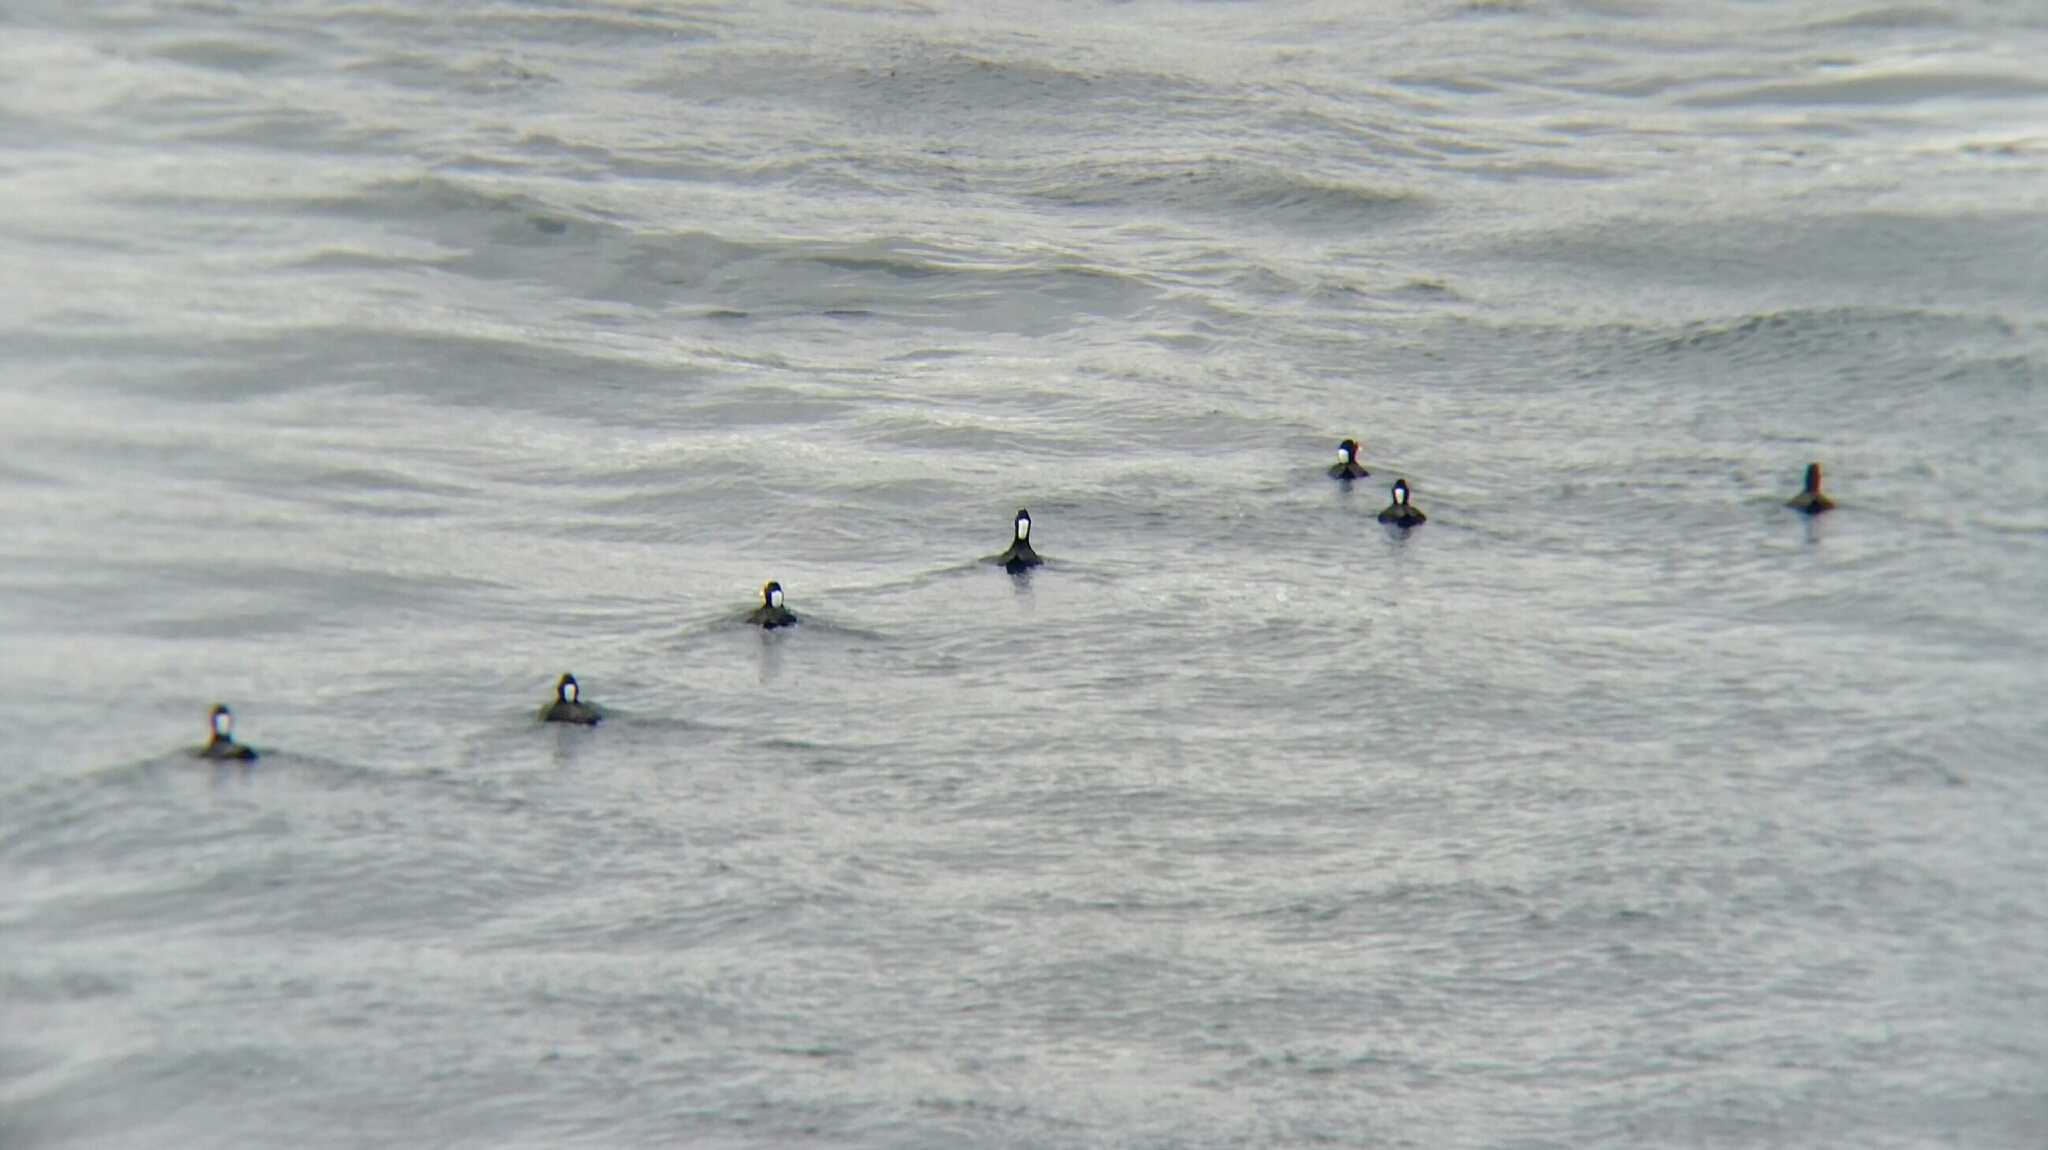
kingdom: Animalia
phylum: Chordata
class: Aves
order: Anseriformes
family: Anatidae
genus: Melanitta
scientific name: Melanitta perspicillata
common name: Surf scoter
